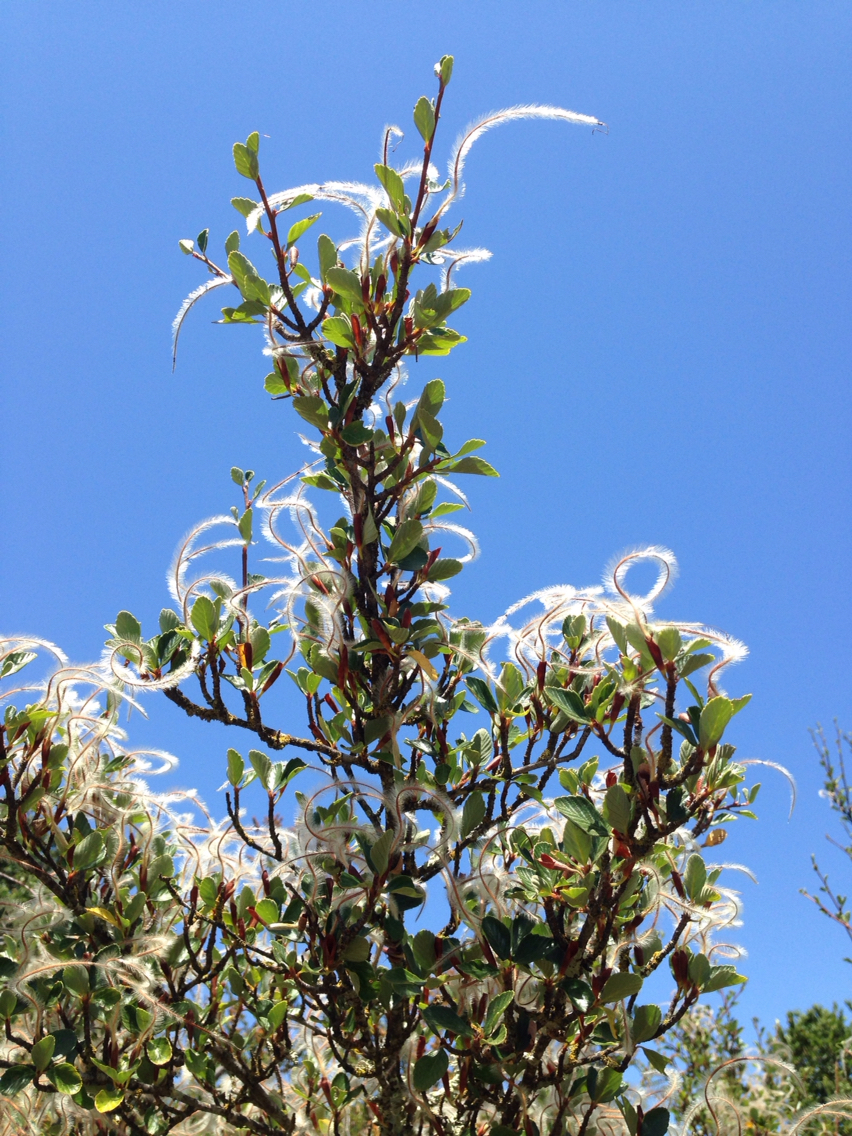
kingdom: Plantae
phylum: Tracheophyta
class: Magnoliopsida
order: Rosales
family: Rosaceae
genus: Cercocarpus
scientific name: Cercocarpus betuloides
